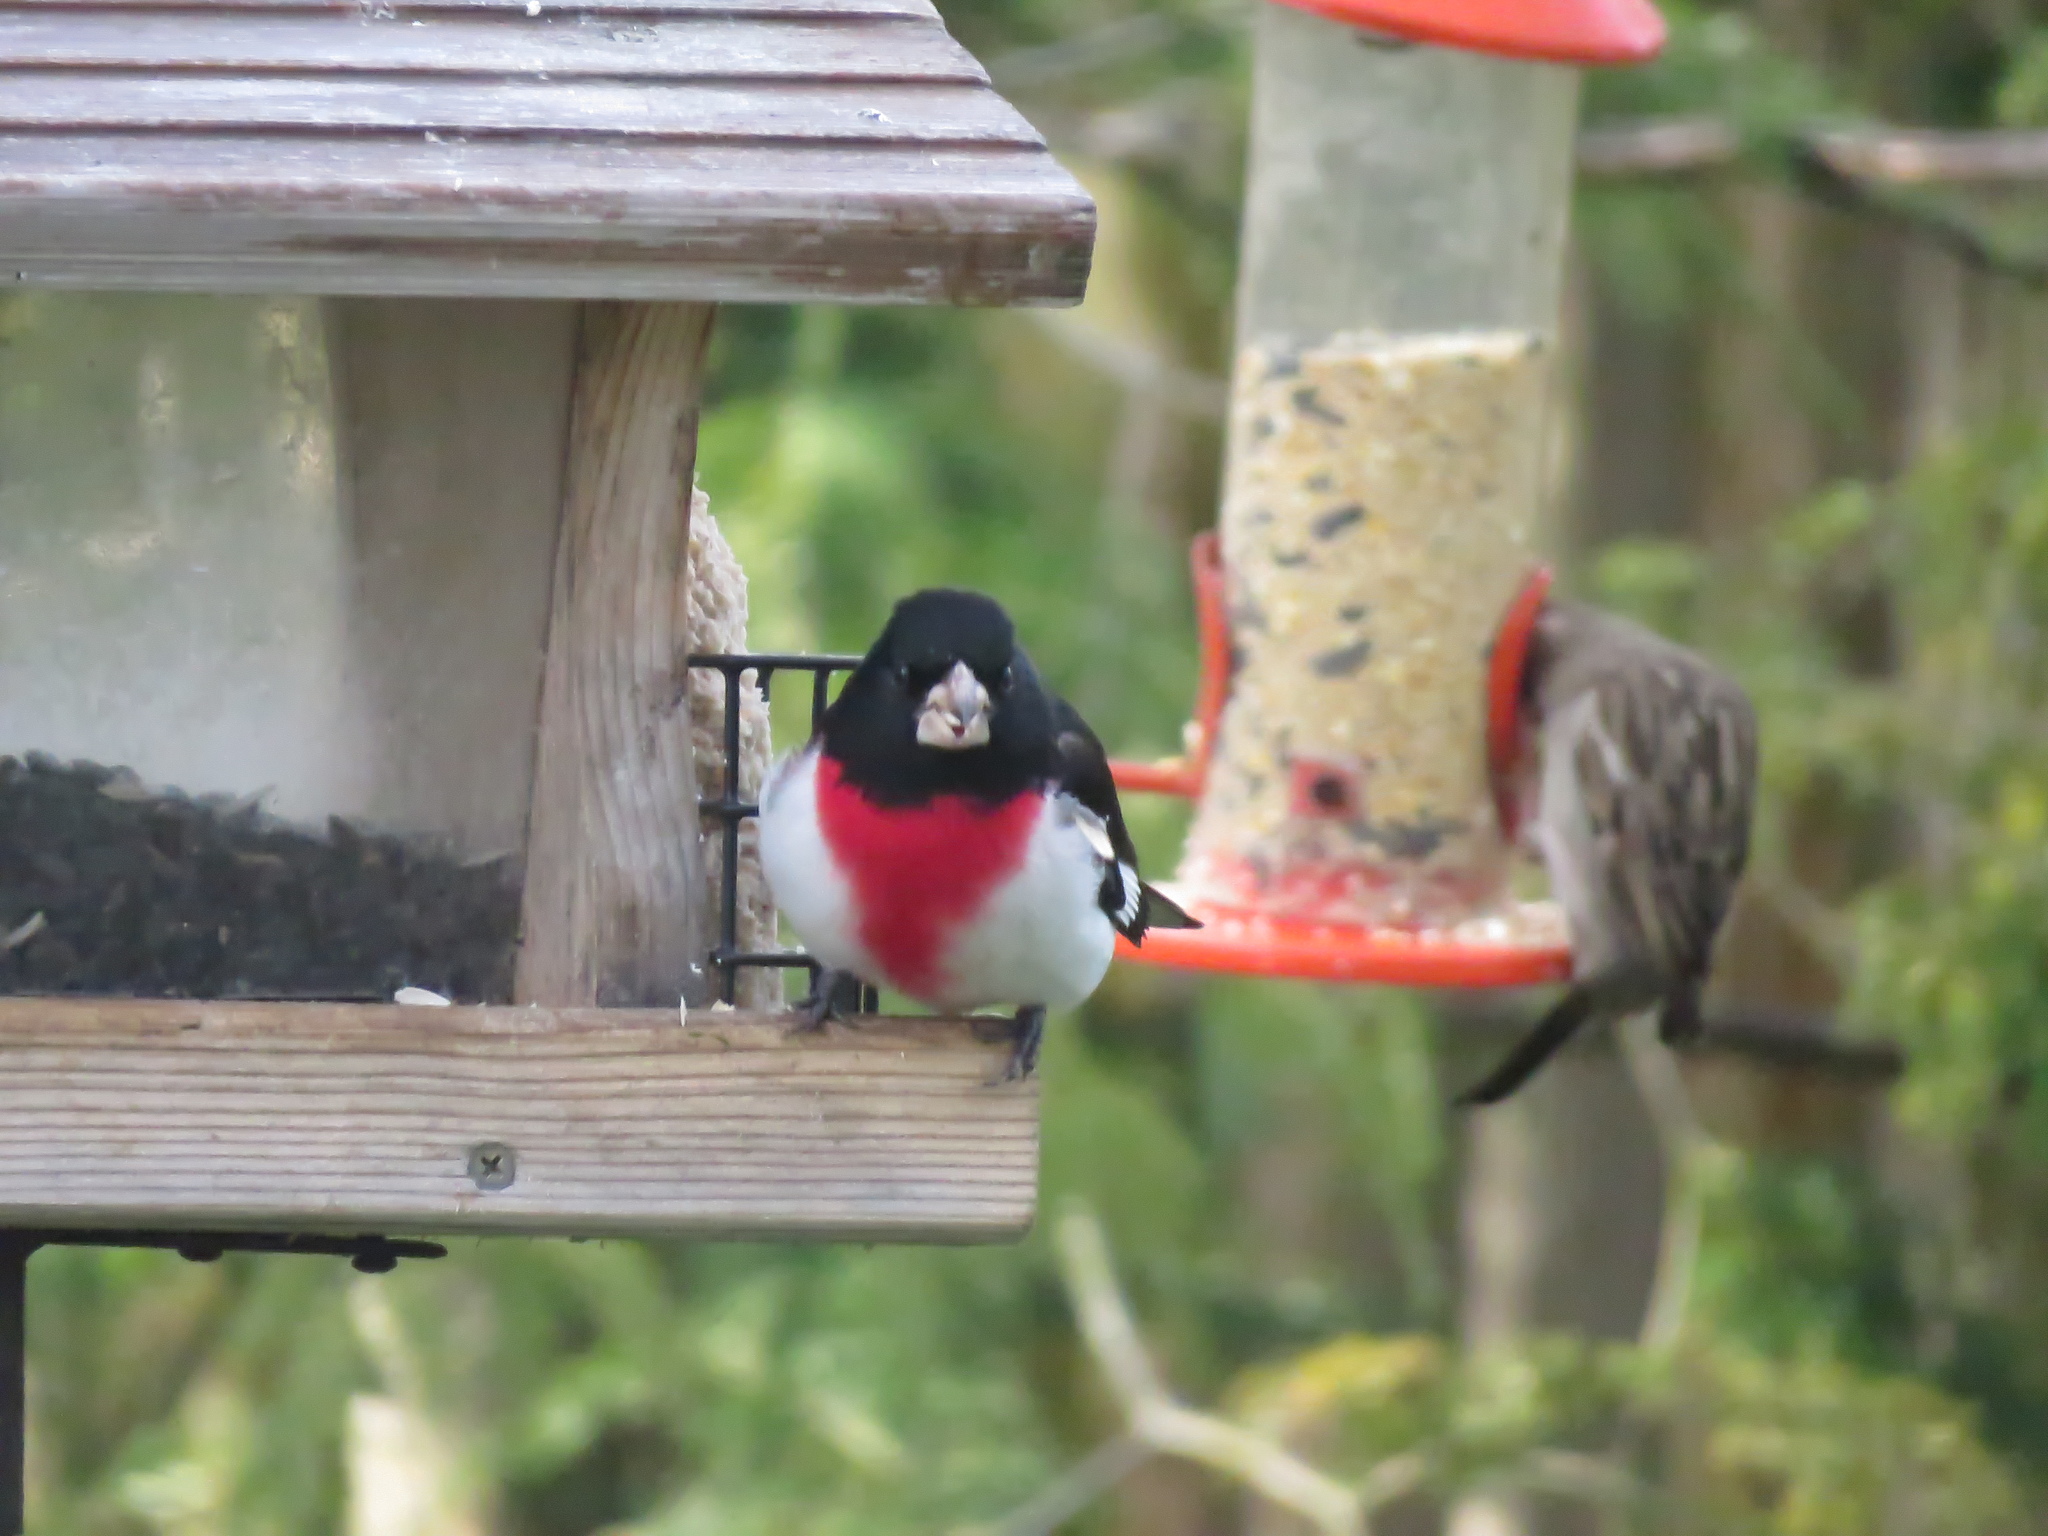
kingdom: Animalia
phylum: Chordata
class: Aves
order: Passeriformes
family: Cardinalidae
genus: Pheucticus
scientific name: Pheucticus ludovicianus
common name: Rose-breasted grosbeak
